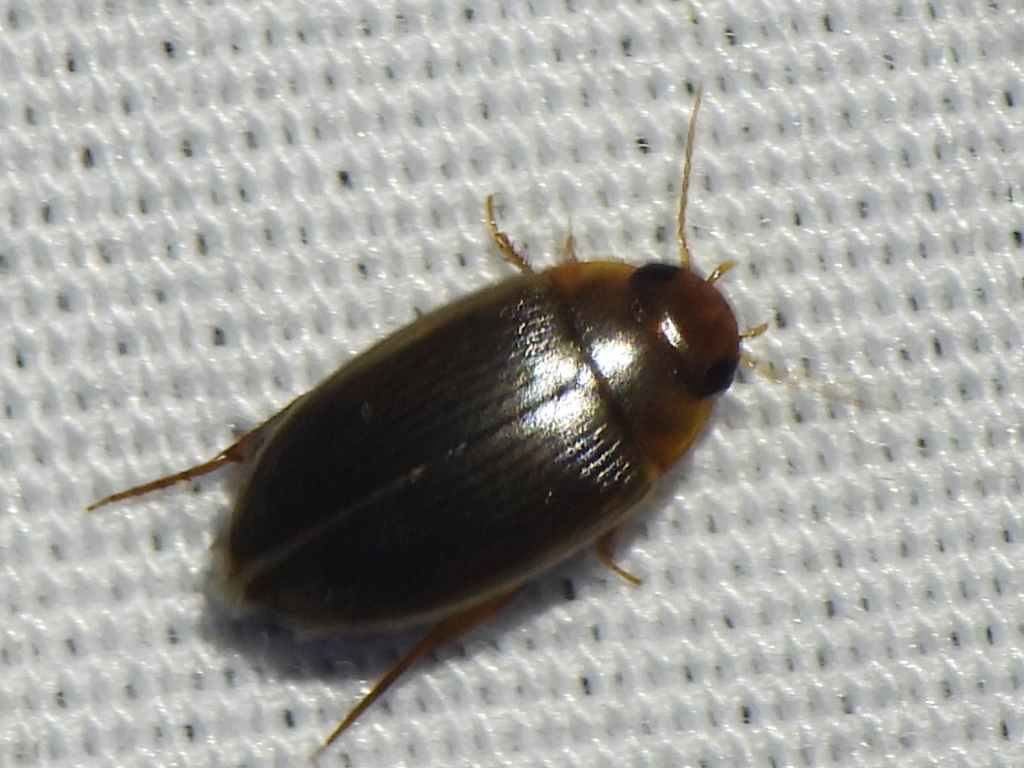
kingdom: Animalia
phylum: Arthropoda
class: Insecta
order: Coleoptera
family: Dytiscidae
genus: Copelatus
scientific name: Copelatus glyphicus
